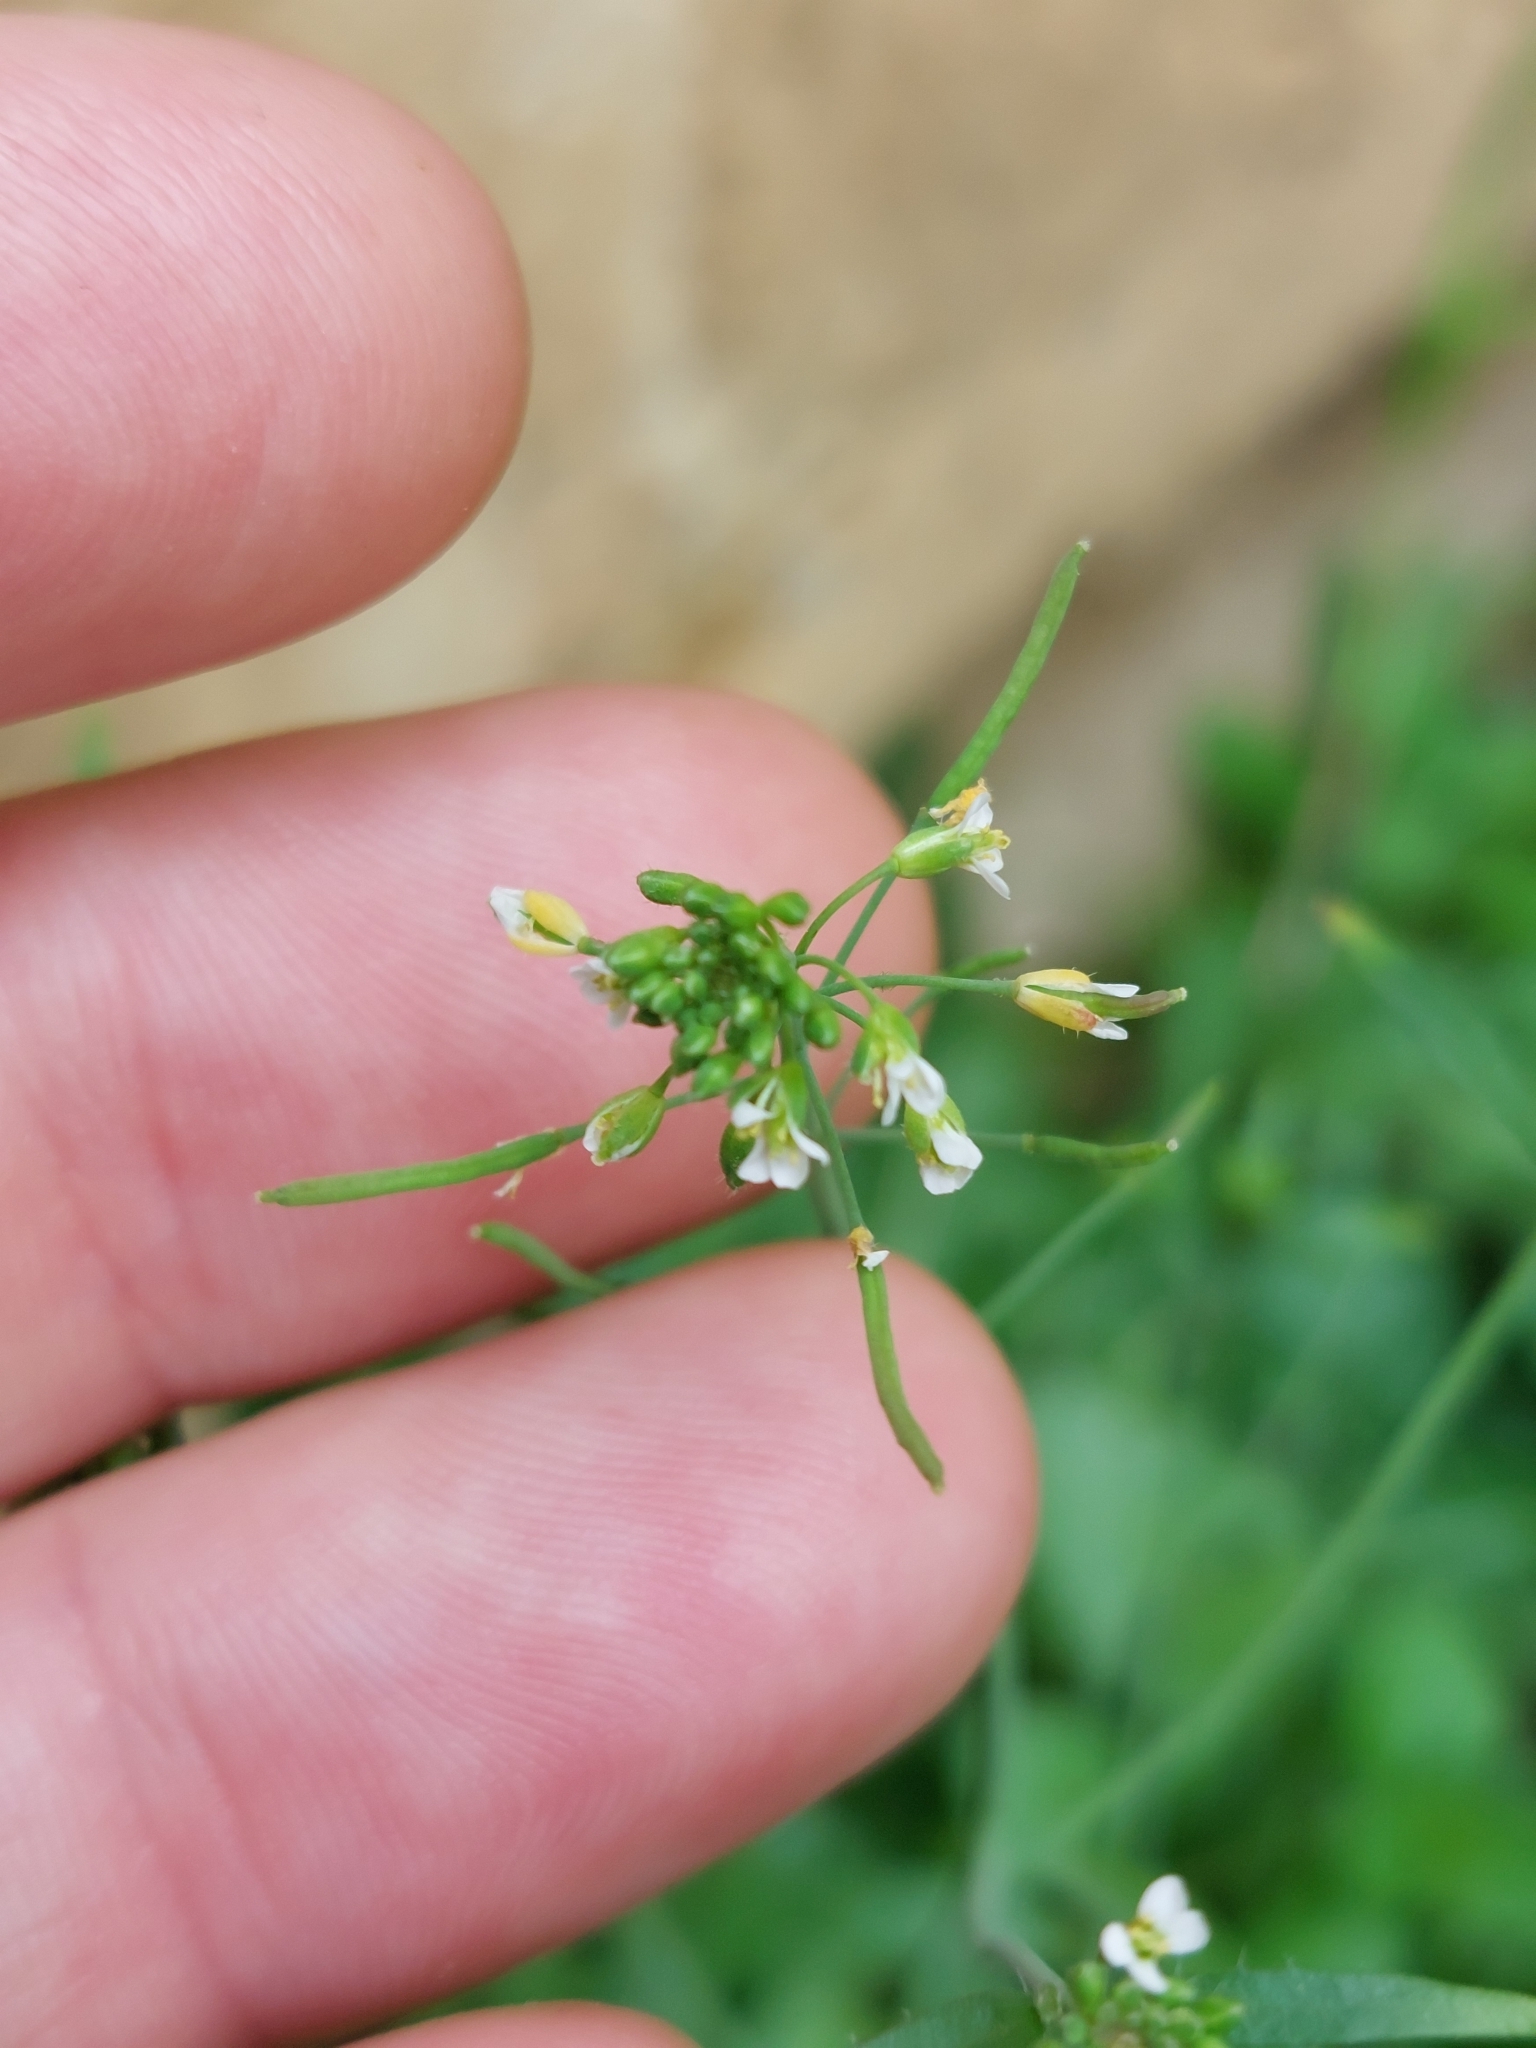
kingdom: Plantae
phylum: Tracheophyta
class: Magnoliopsida
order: Brassicales
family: Brassicaceae
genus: Arabidopsis
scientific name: Arabidopsis thaliana
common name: Thale cress
